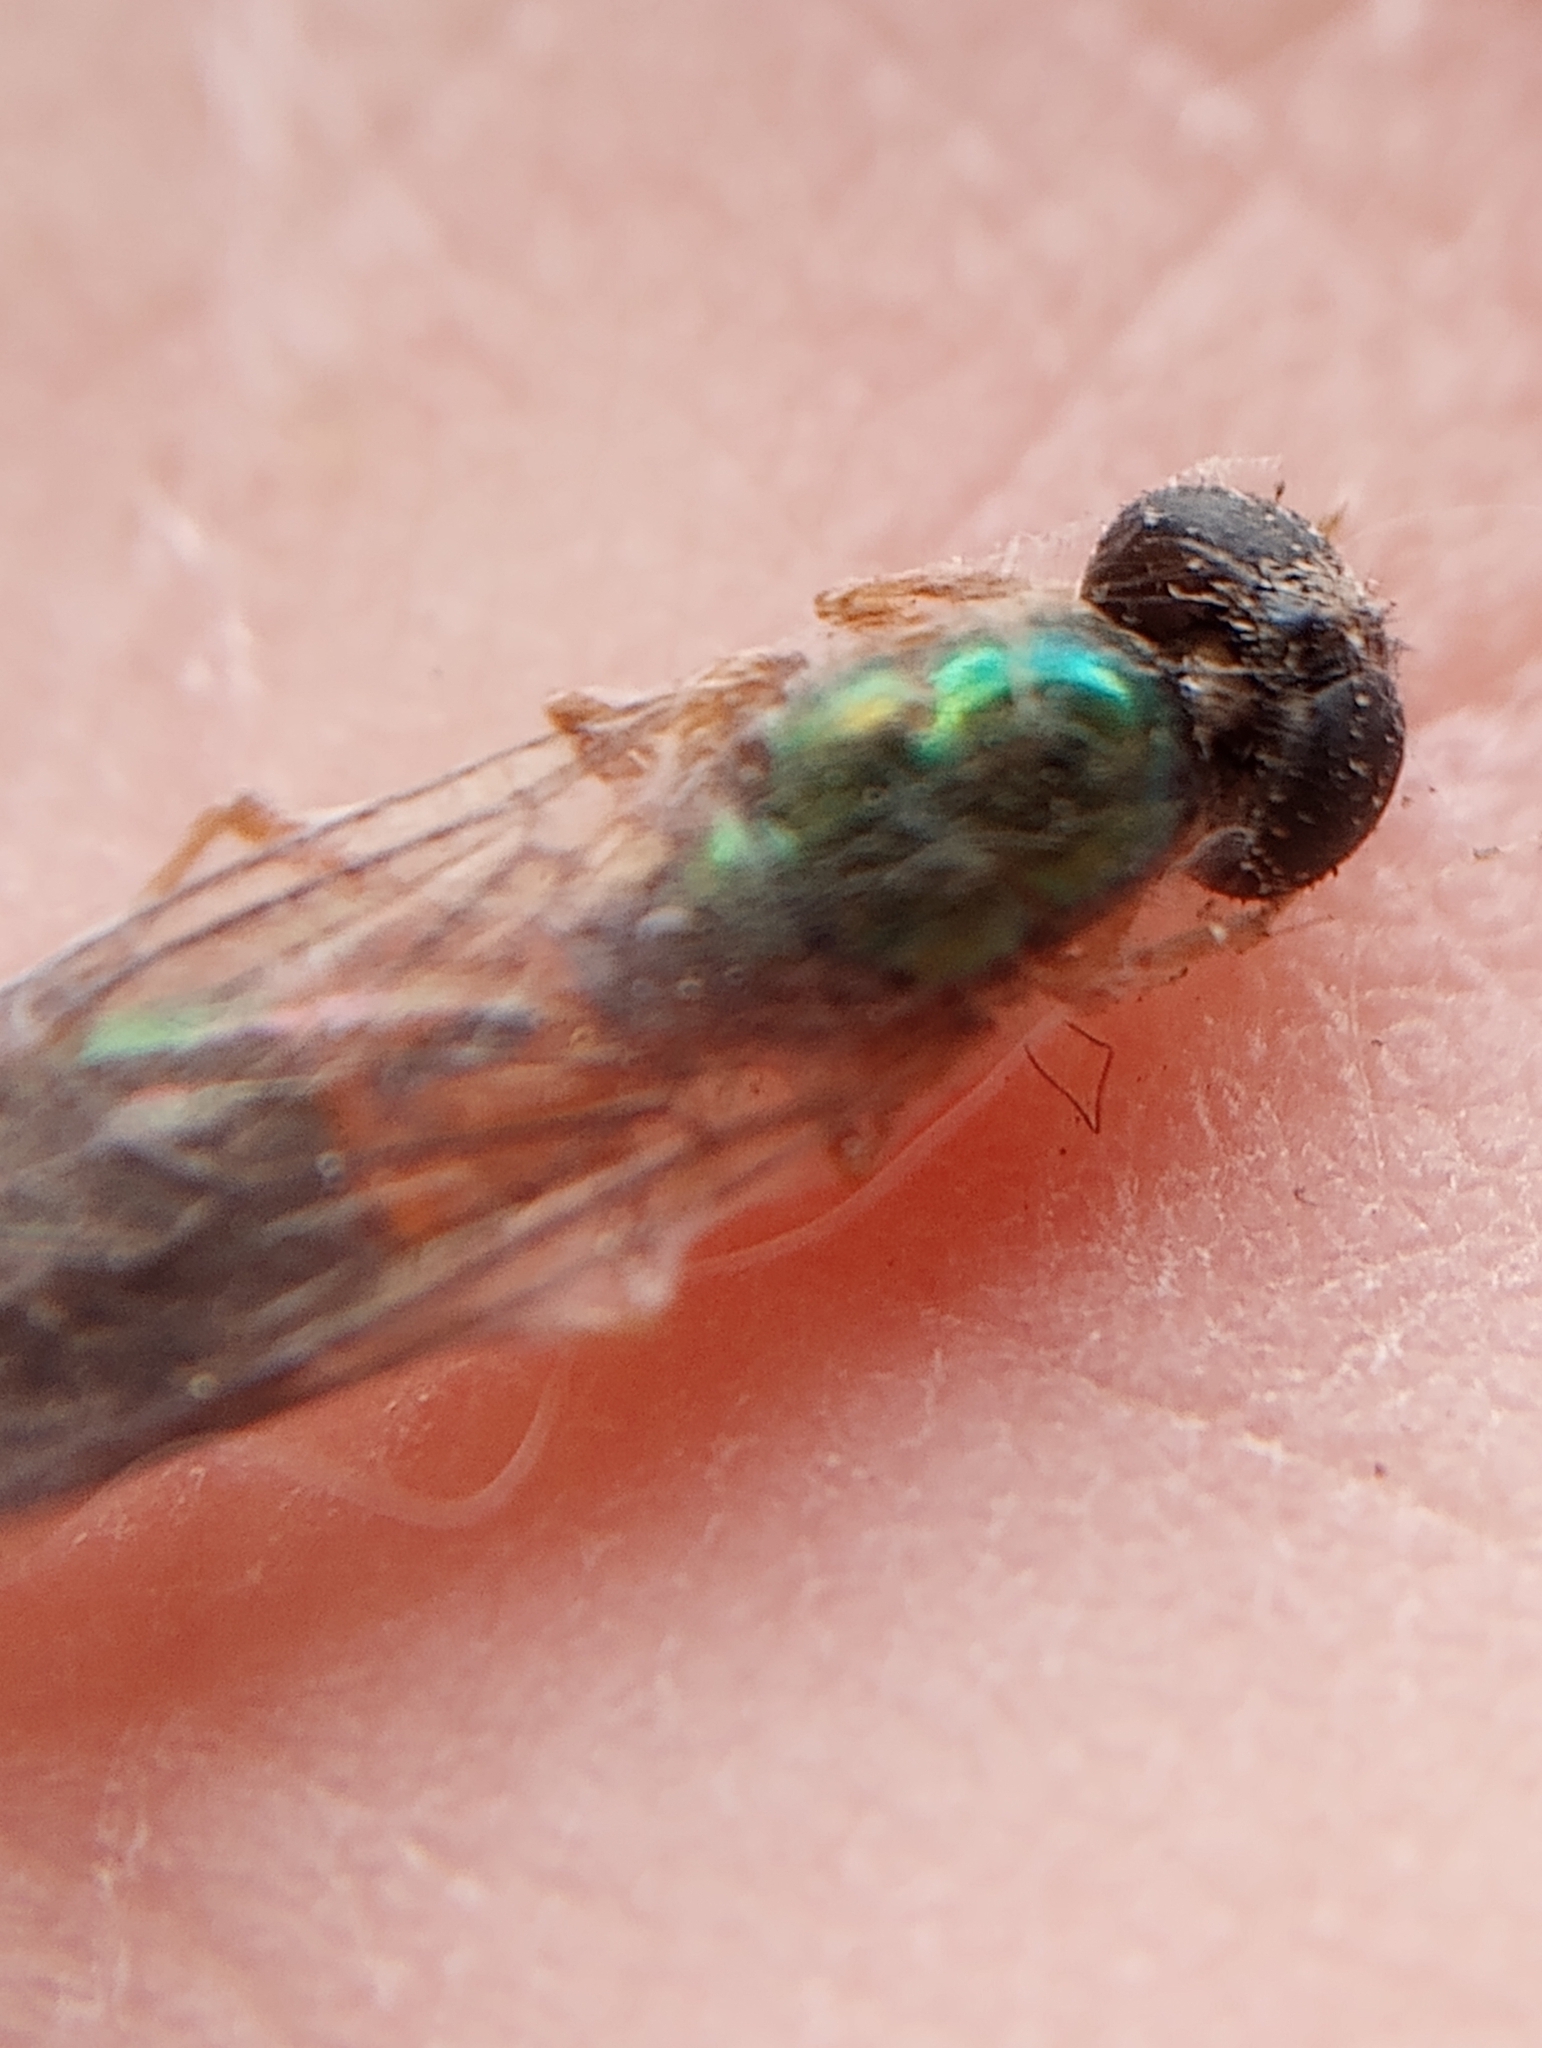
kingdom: Animalia
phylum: Arthropoda
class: Insecta
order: Diptera
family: Stratiomyidae
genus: Sargus
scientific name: Sargus bipunctatus
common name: Twin-spot centurion
